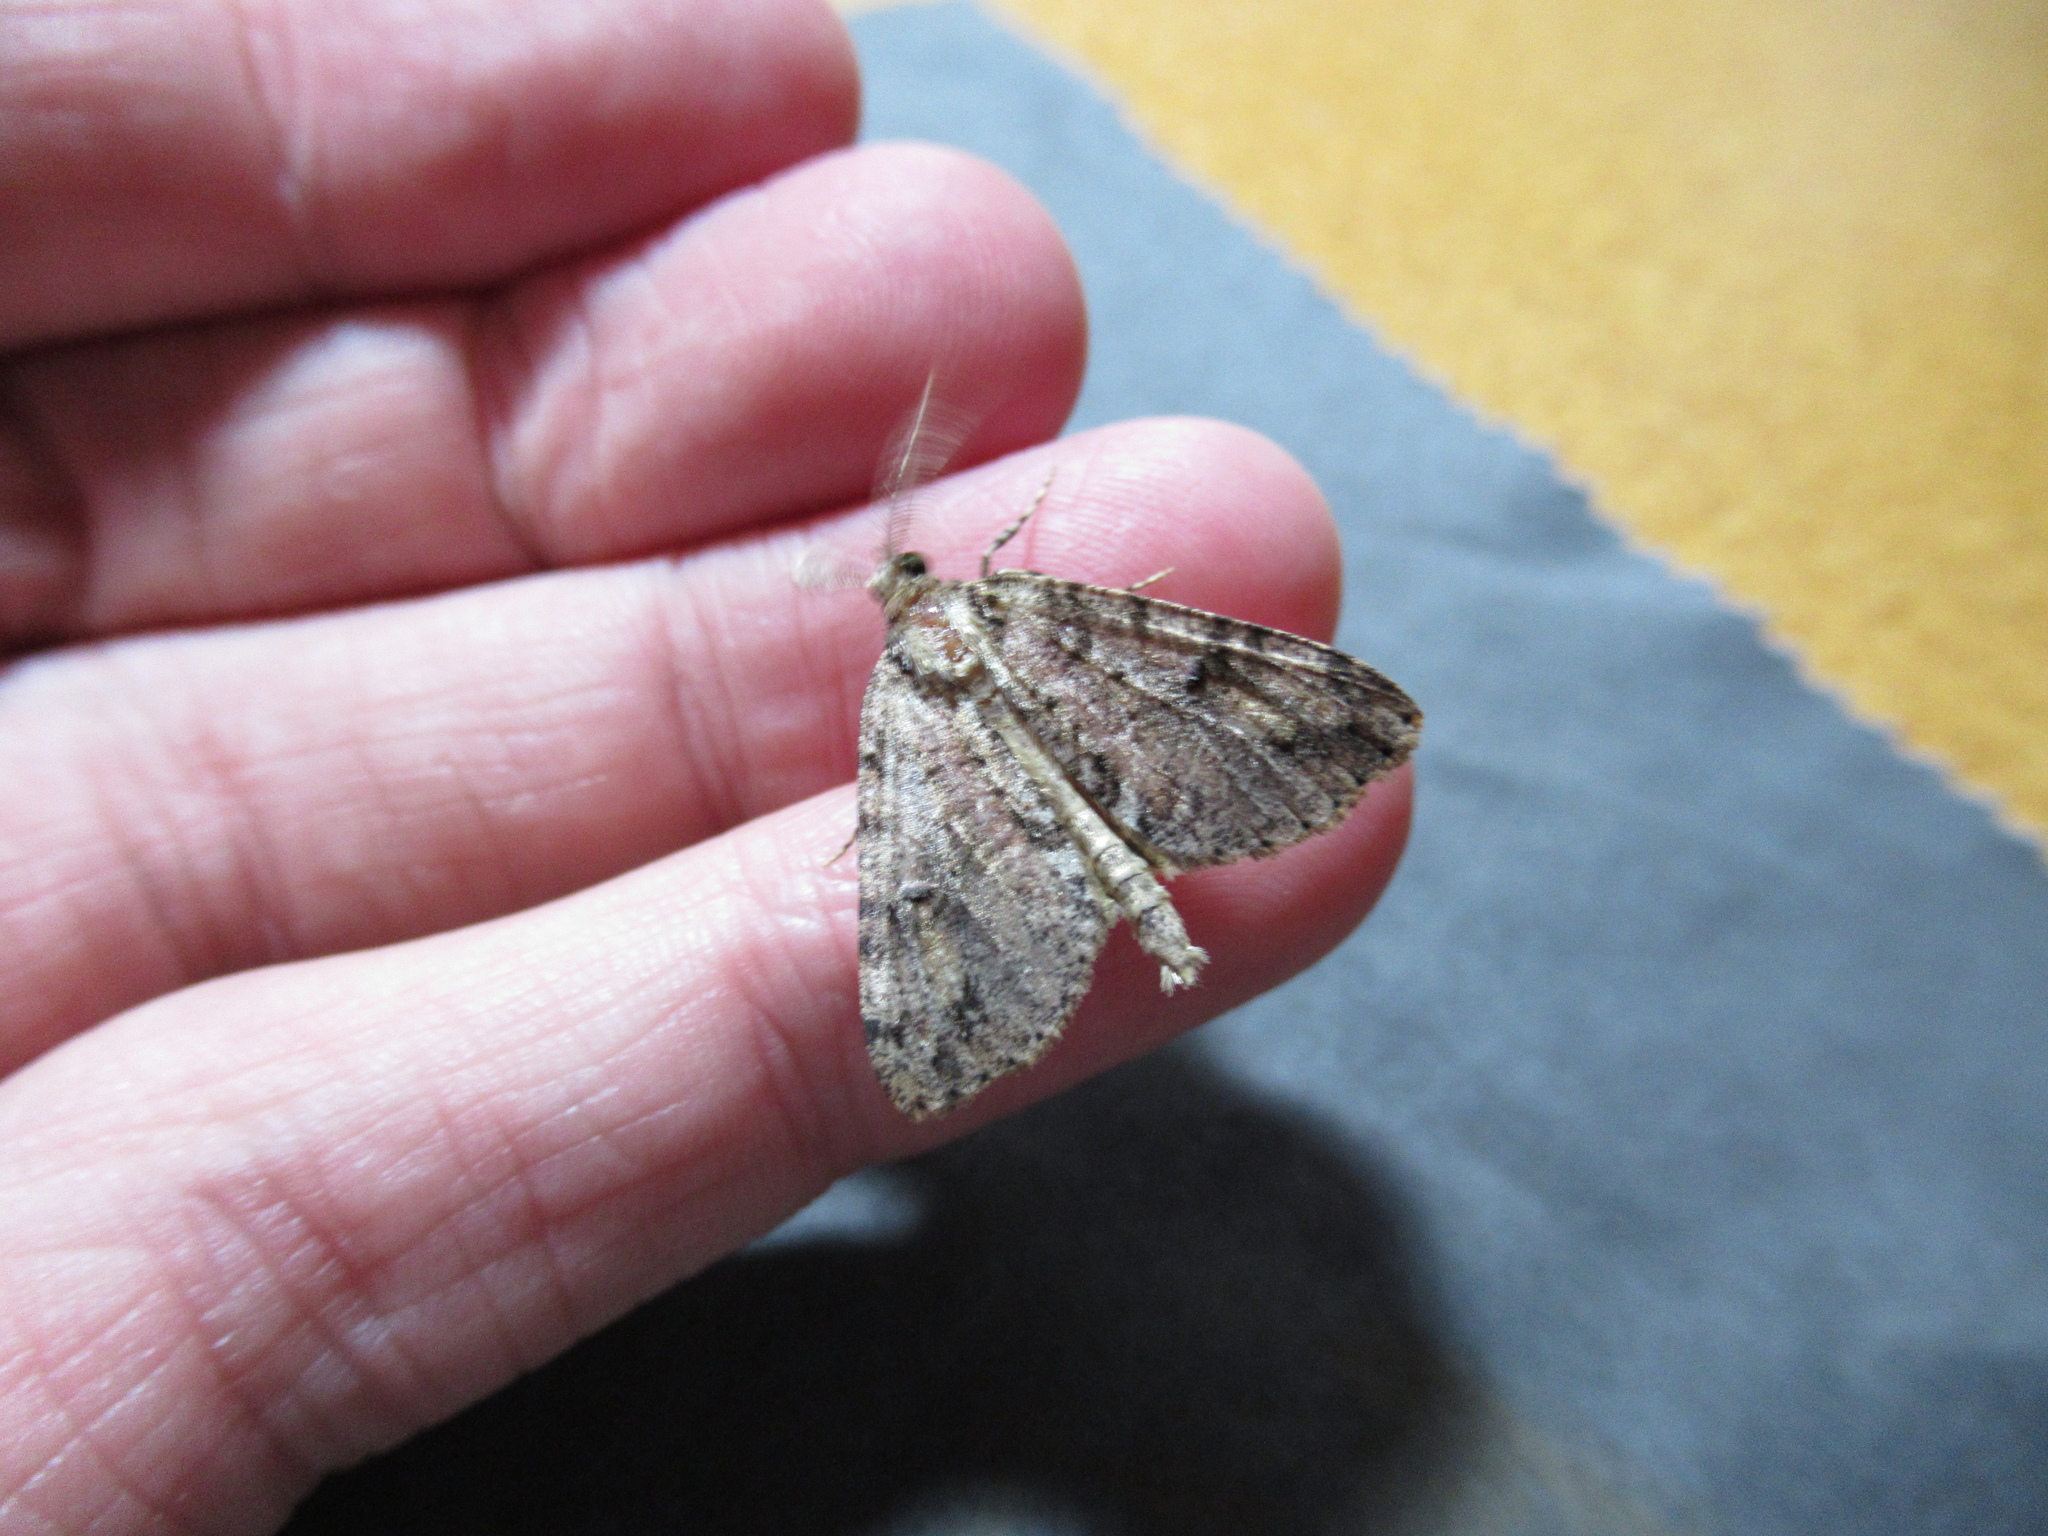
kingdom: Animalia
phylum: Arthropoda
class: Insecta
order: Lepidoptera
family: Geometridae
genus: Pseudocoremia
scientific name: Pseudocoremia suavis
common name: Common forest looper
